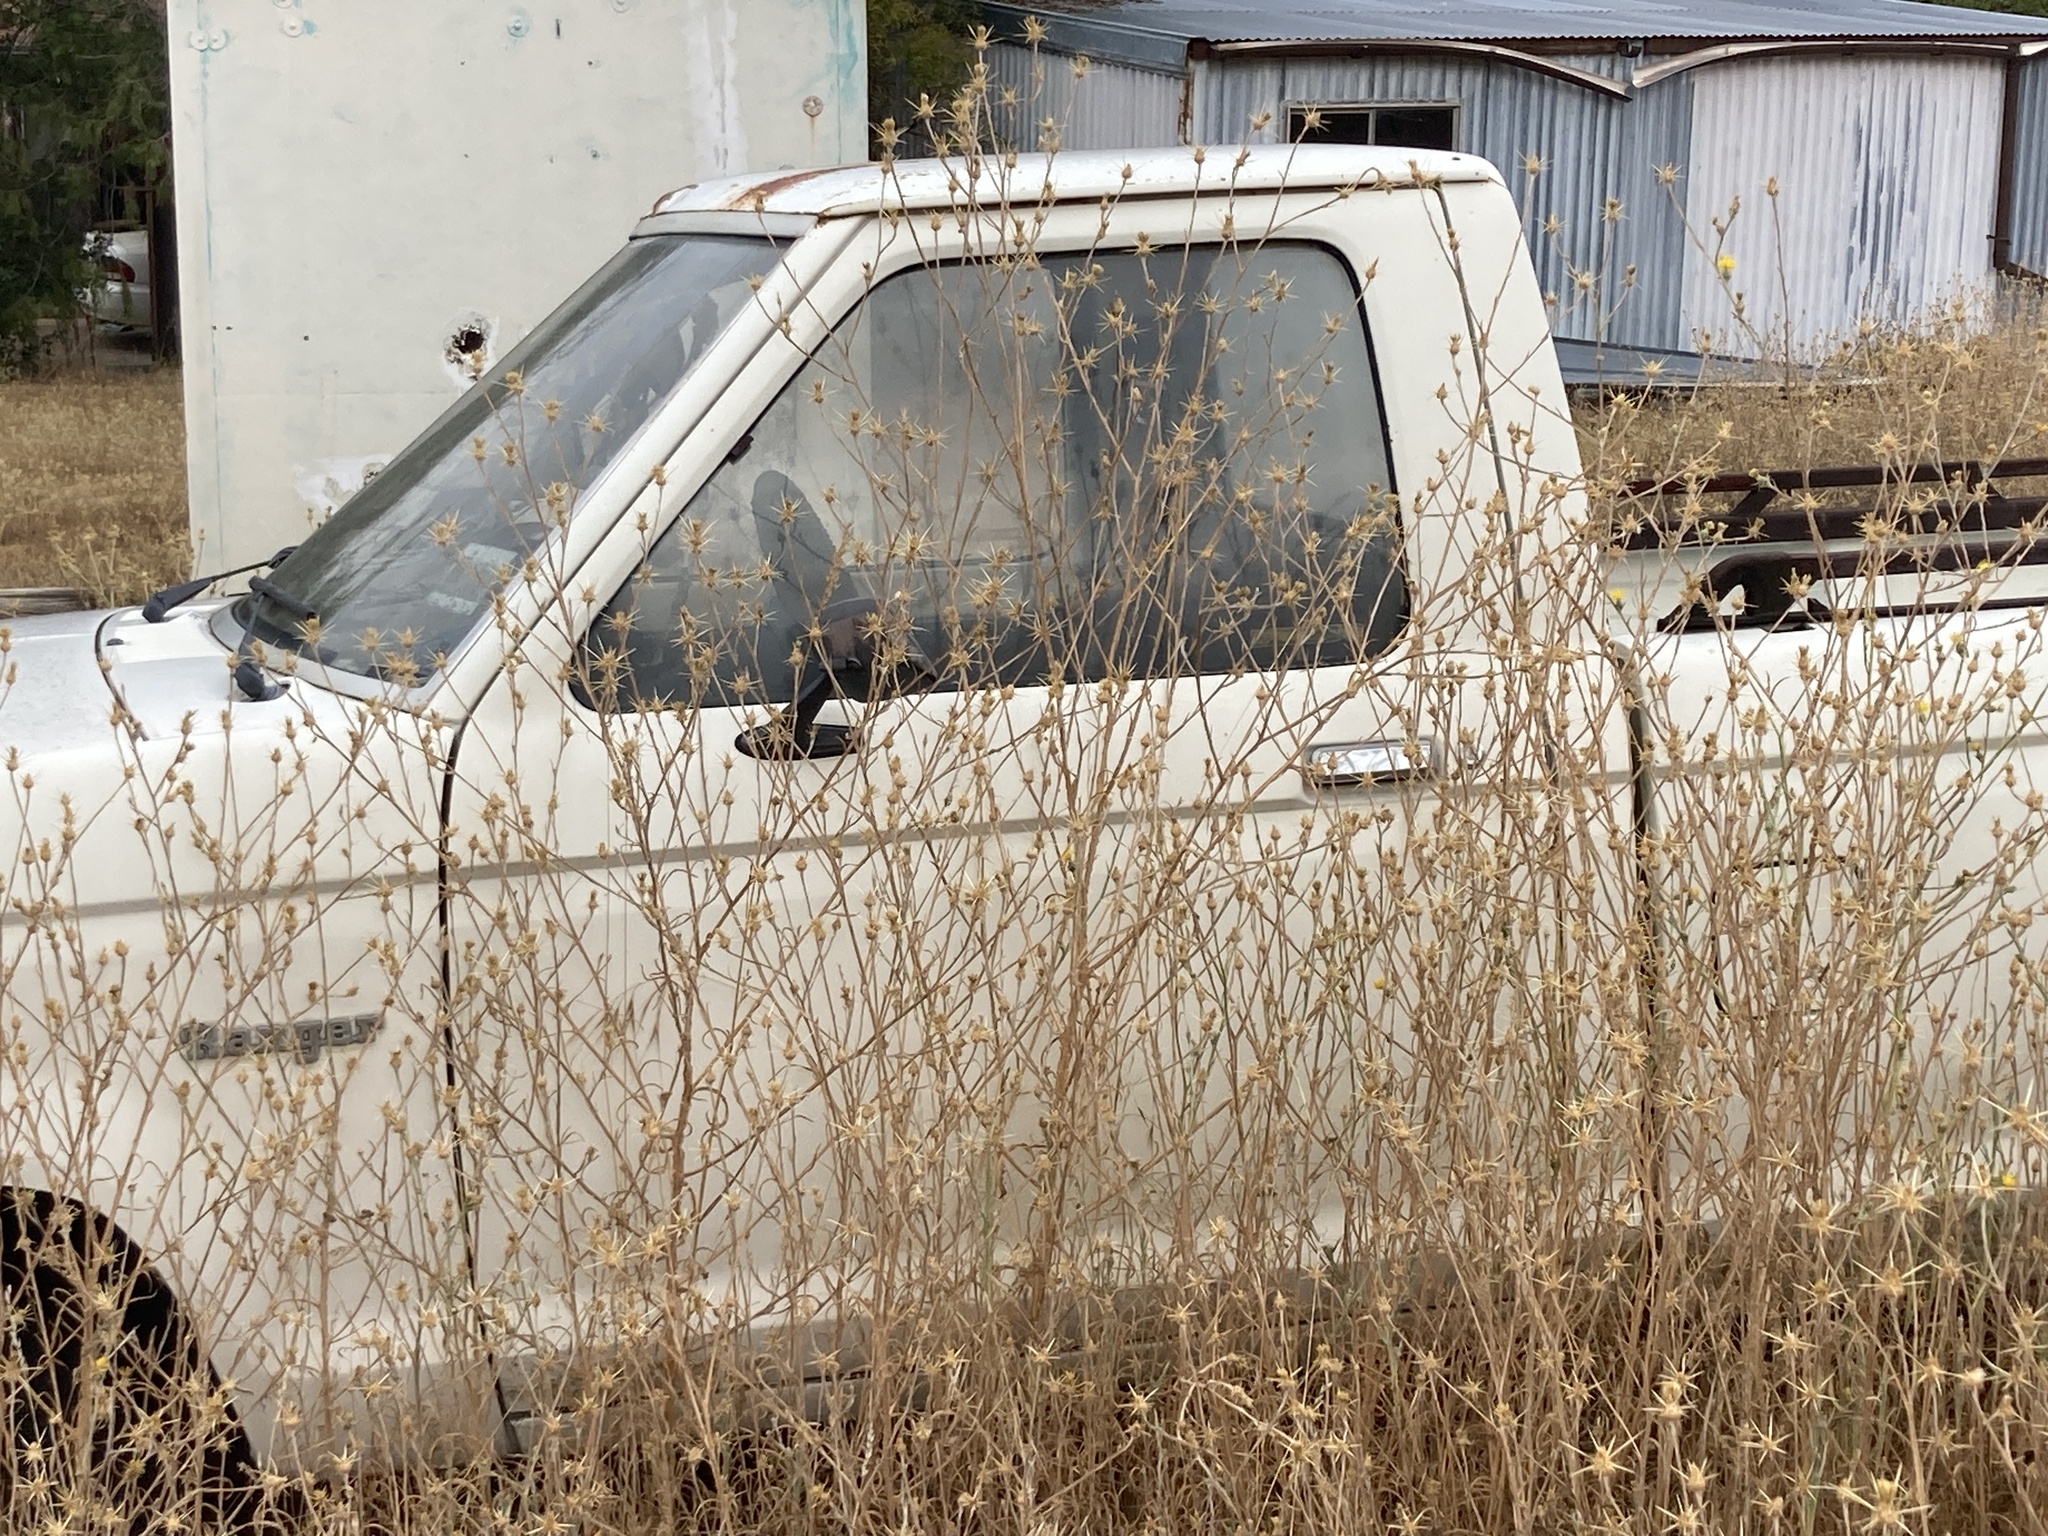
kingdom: Plantae
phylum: Tracheophyta
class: Magnoliopsida
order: Asterales
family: Asteraceae
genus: Centaurea
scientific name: Centaurea solstitialis
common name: Yellow star-thistle
